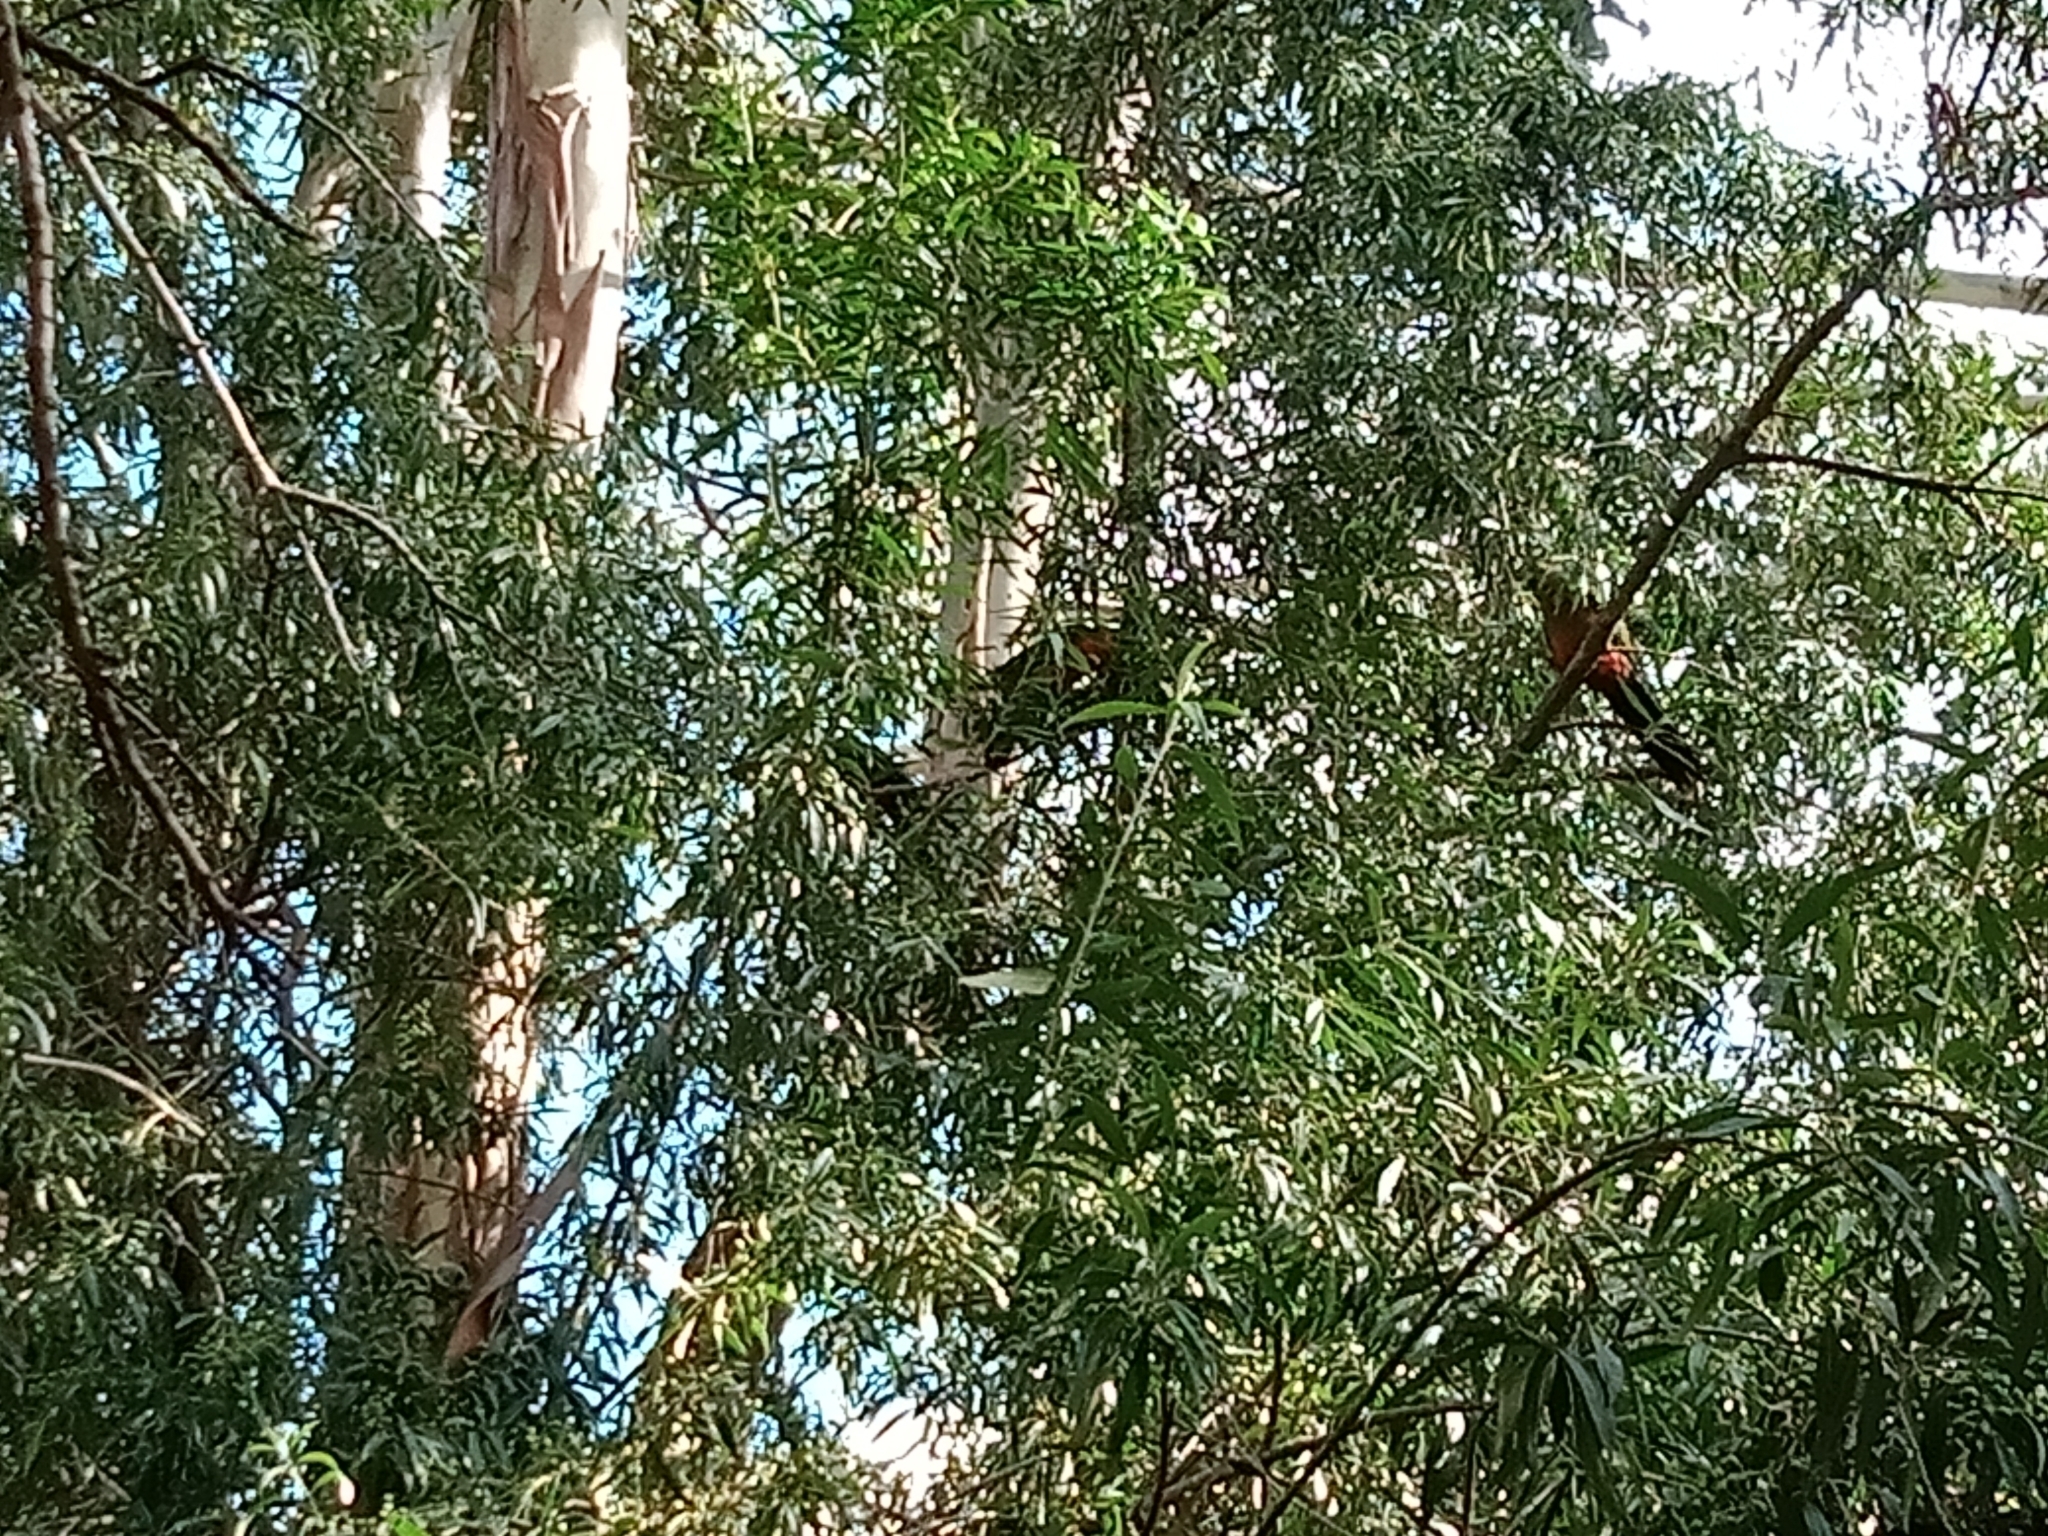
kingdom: Animalia
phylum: Chordata
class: Aves
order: Psittaciformes
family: Psittacidae
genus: Alisterus
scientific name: Alisterus scapularis
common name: Australian king parrot
